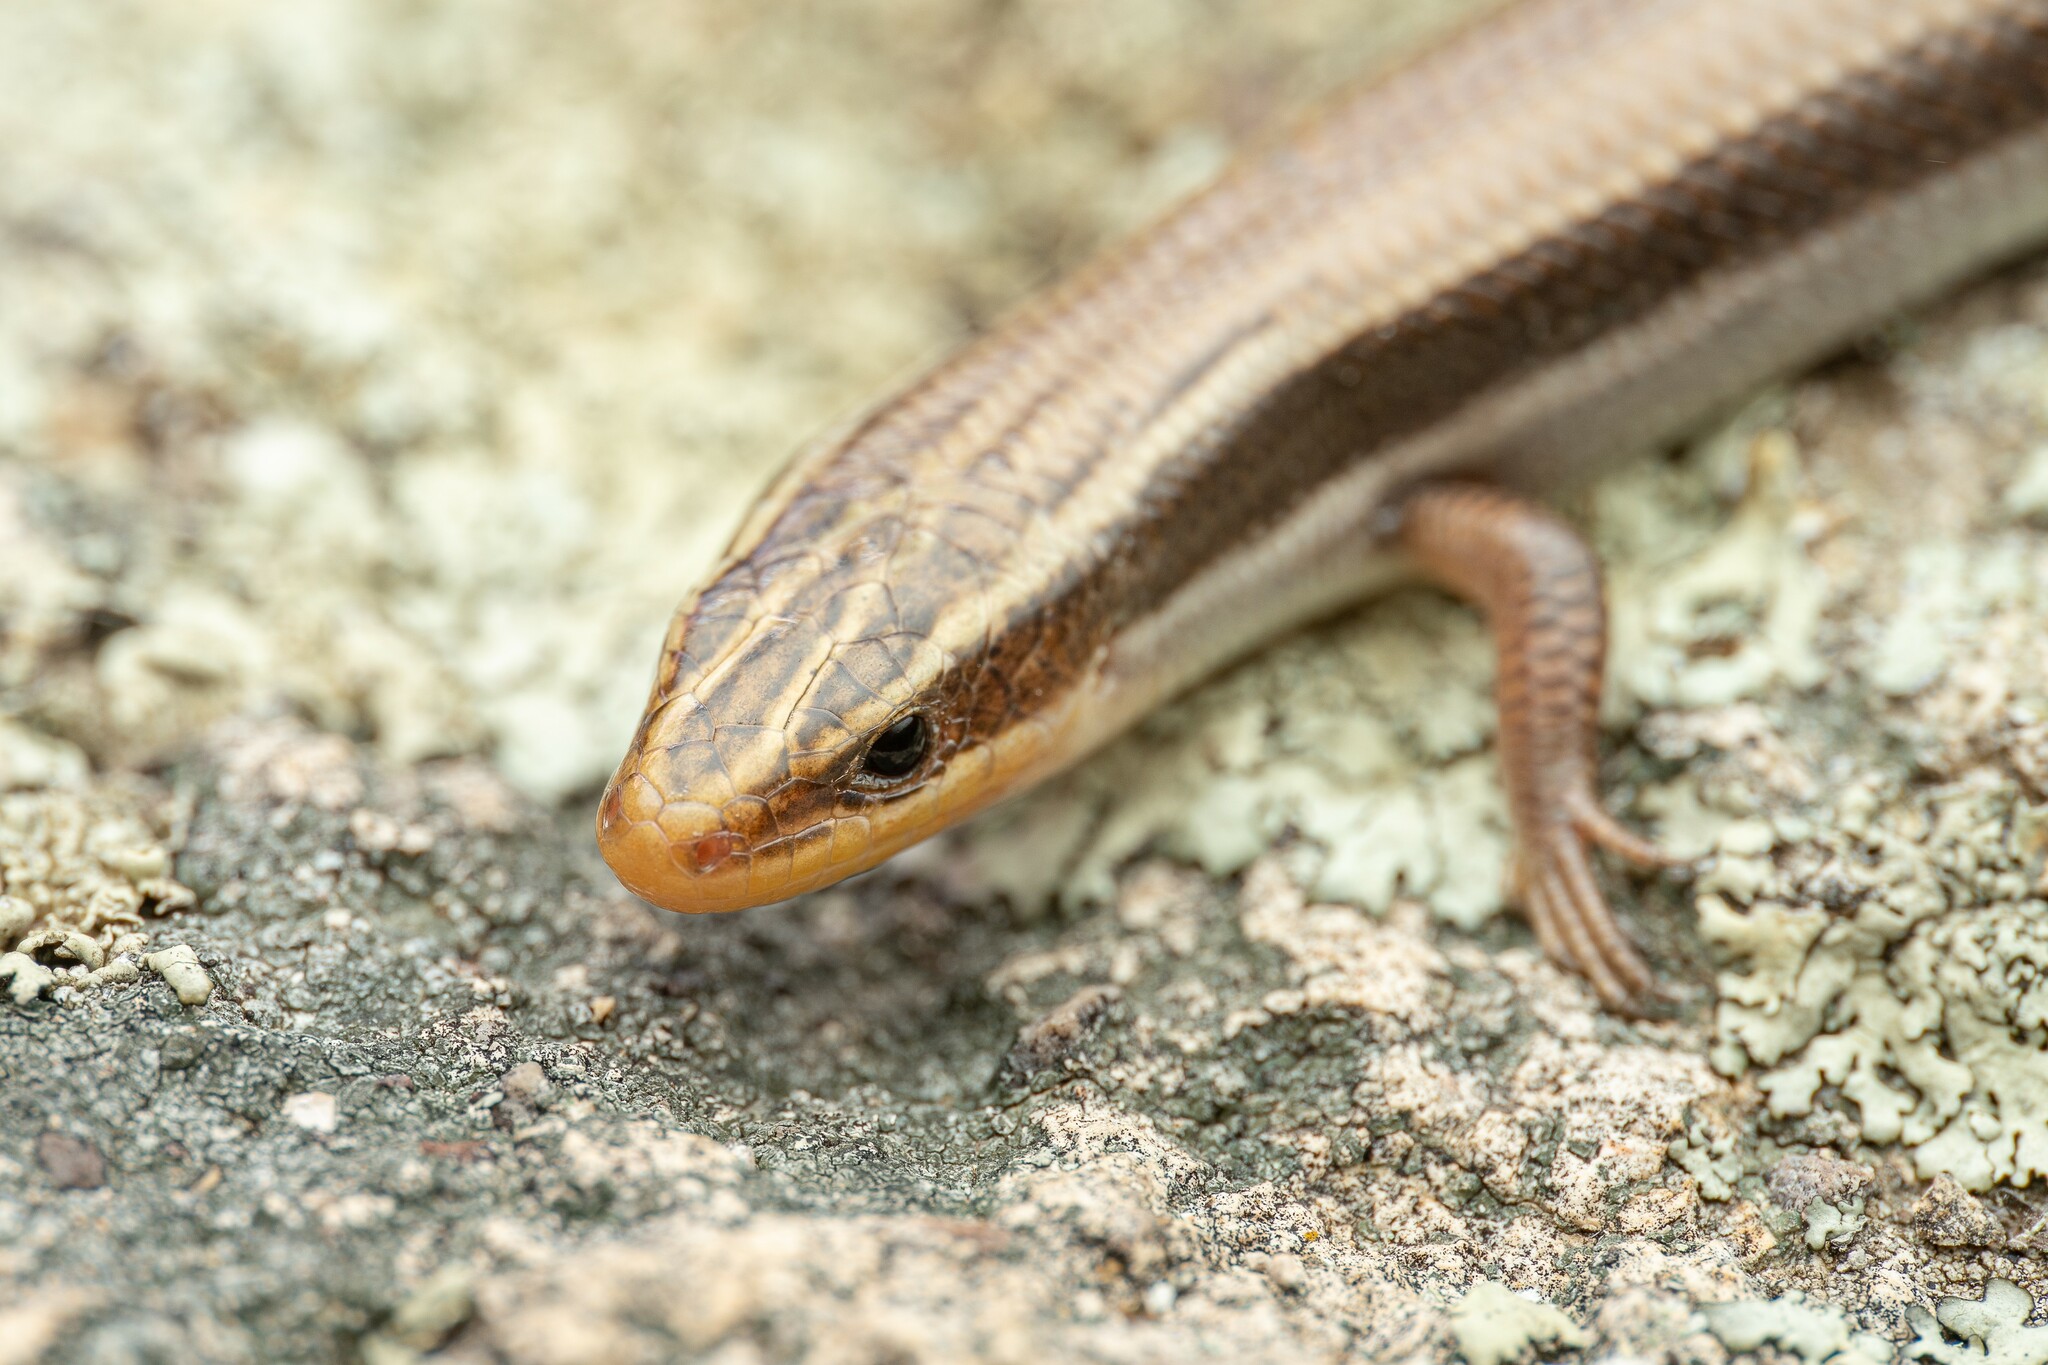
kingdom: Animalia
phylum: Chordata
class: Squamata
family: Scincidae
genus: Plestiodon
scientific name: Plestiodon callicephalus
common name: Mountain skink
